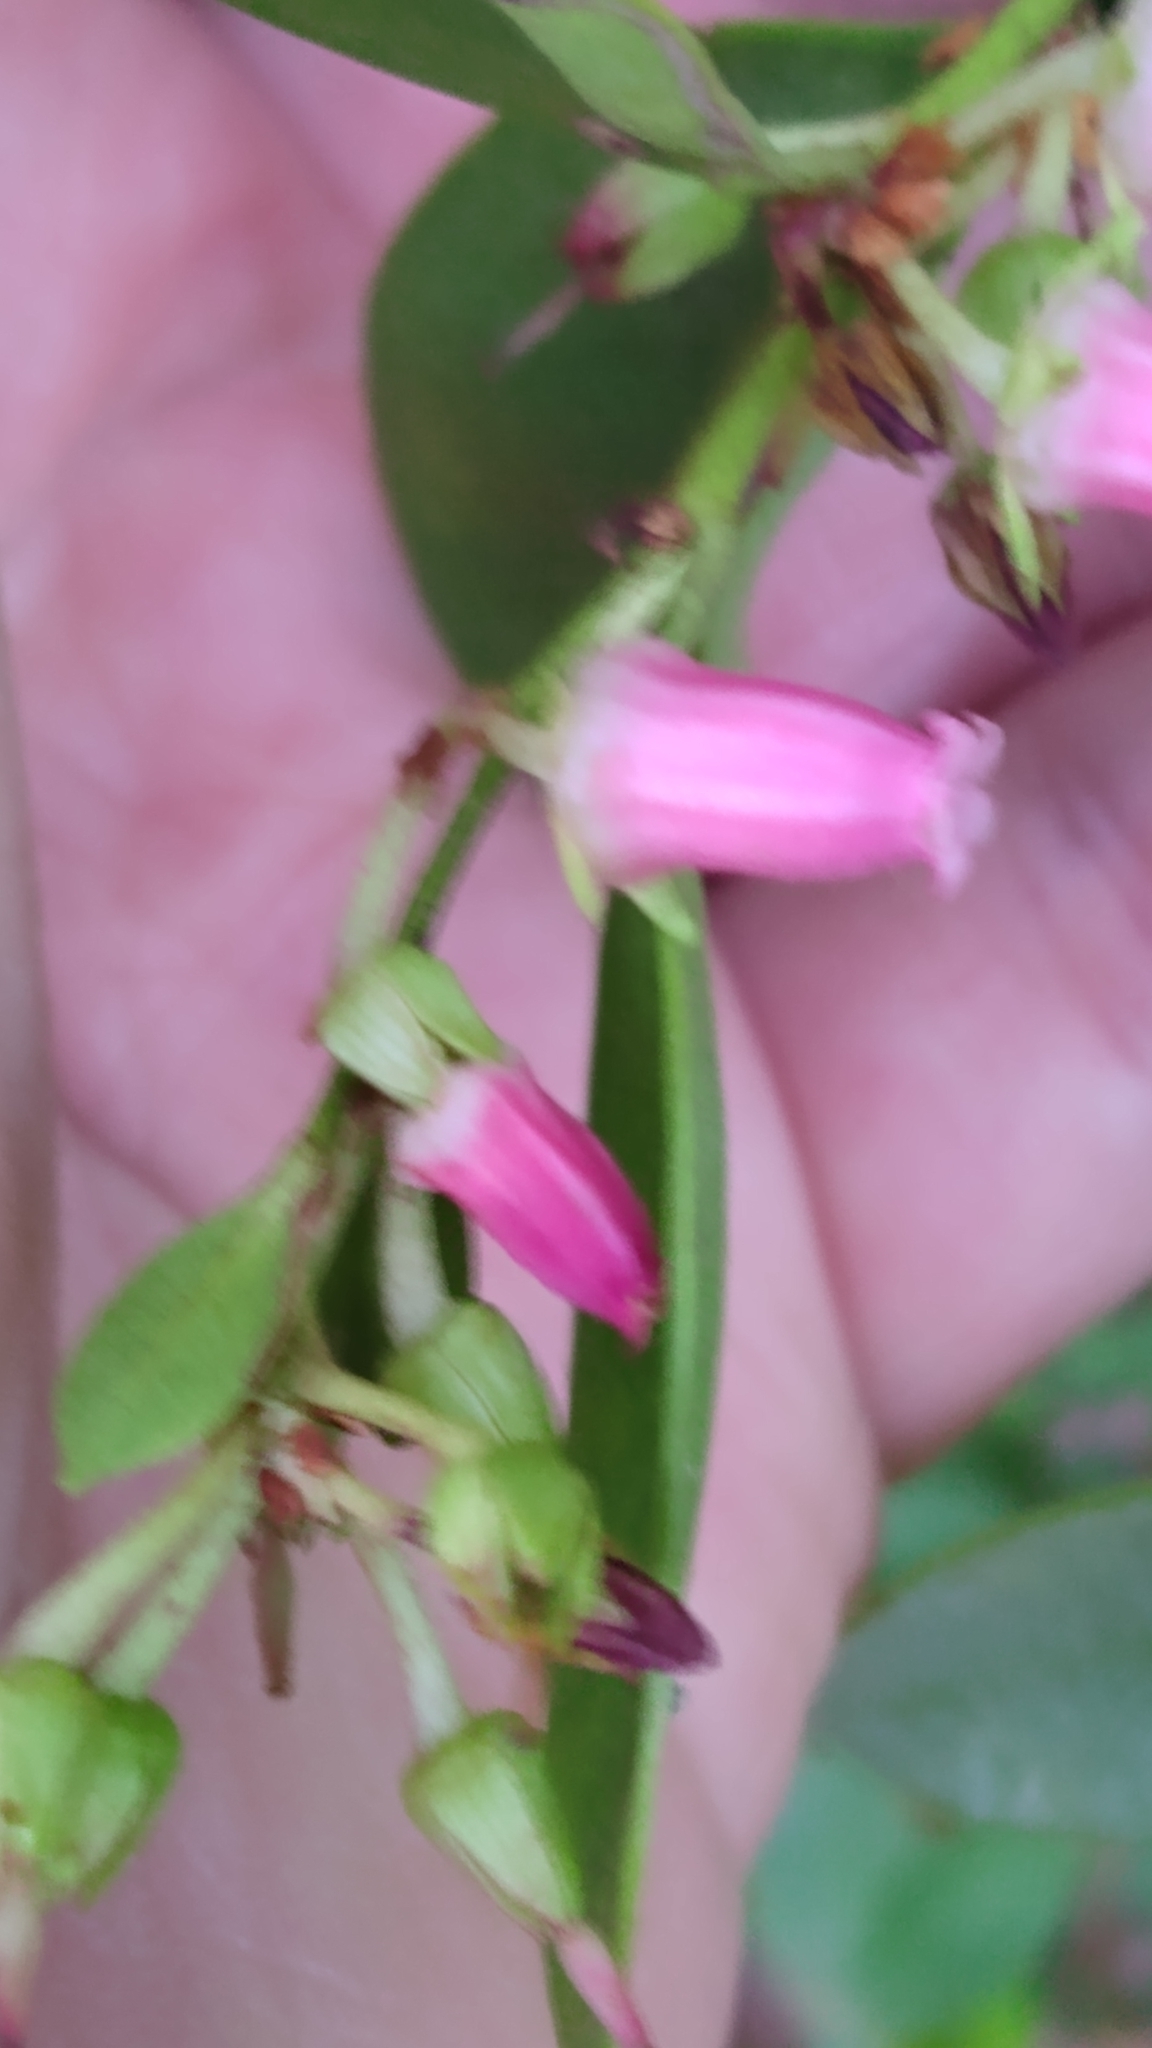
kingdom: Plantae
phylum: Tracheophyta
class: Magnoliopsida
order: Ericales
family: Ericaceae
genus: Lyonia
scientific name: Lyonia lucida
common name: Fetterbush
